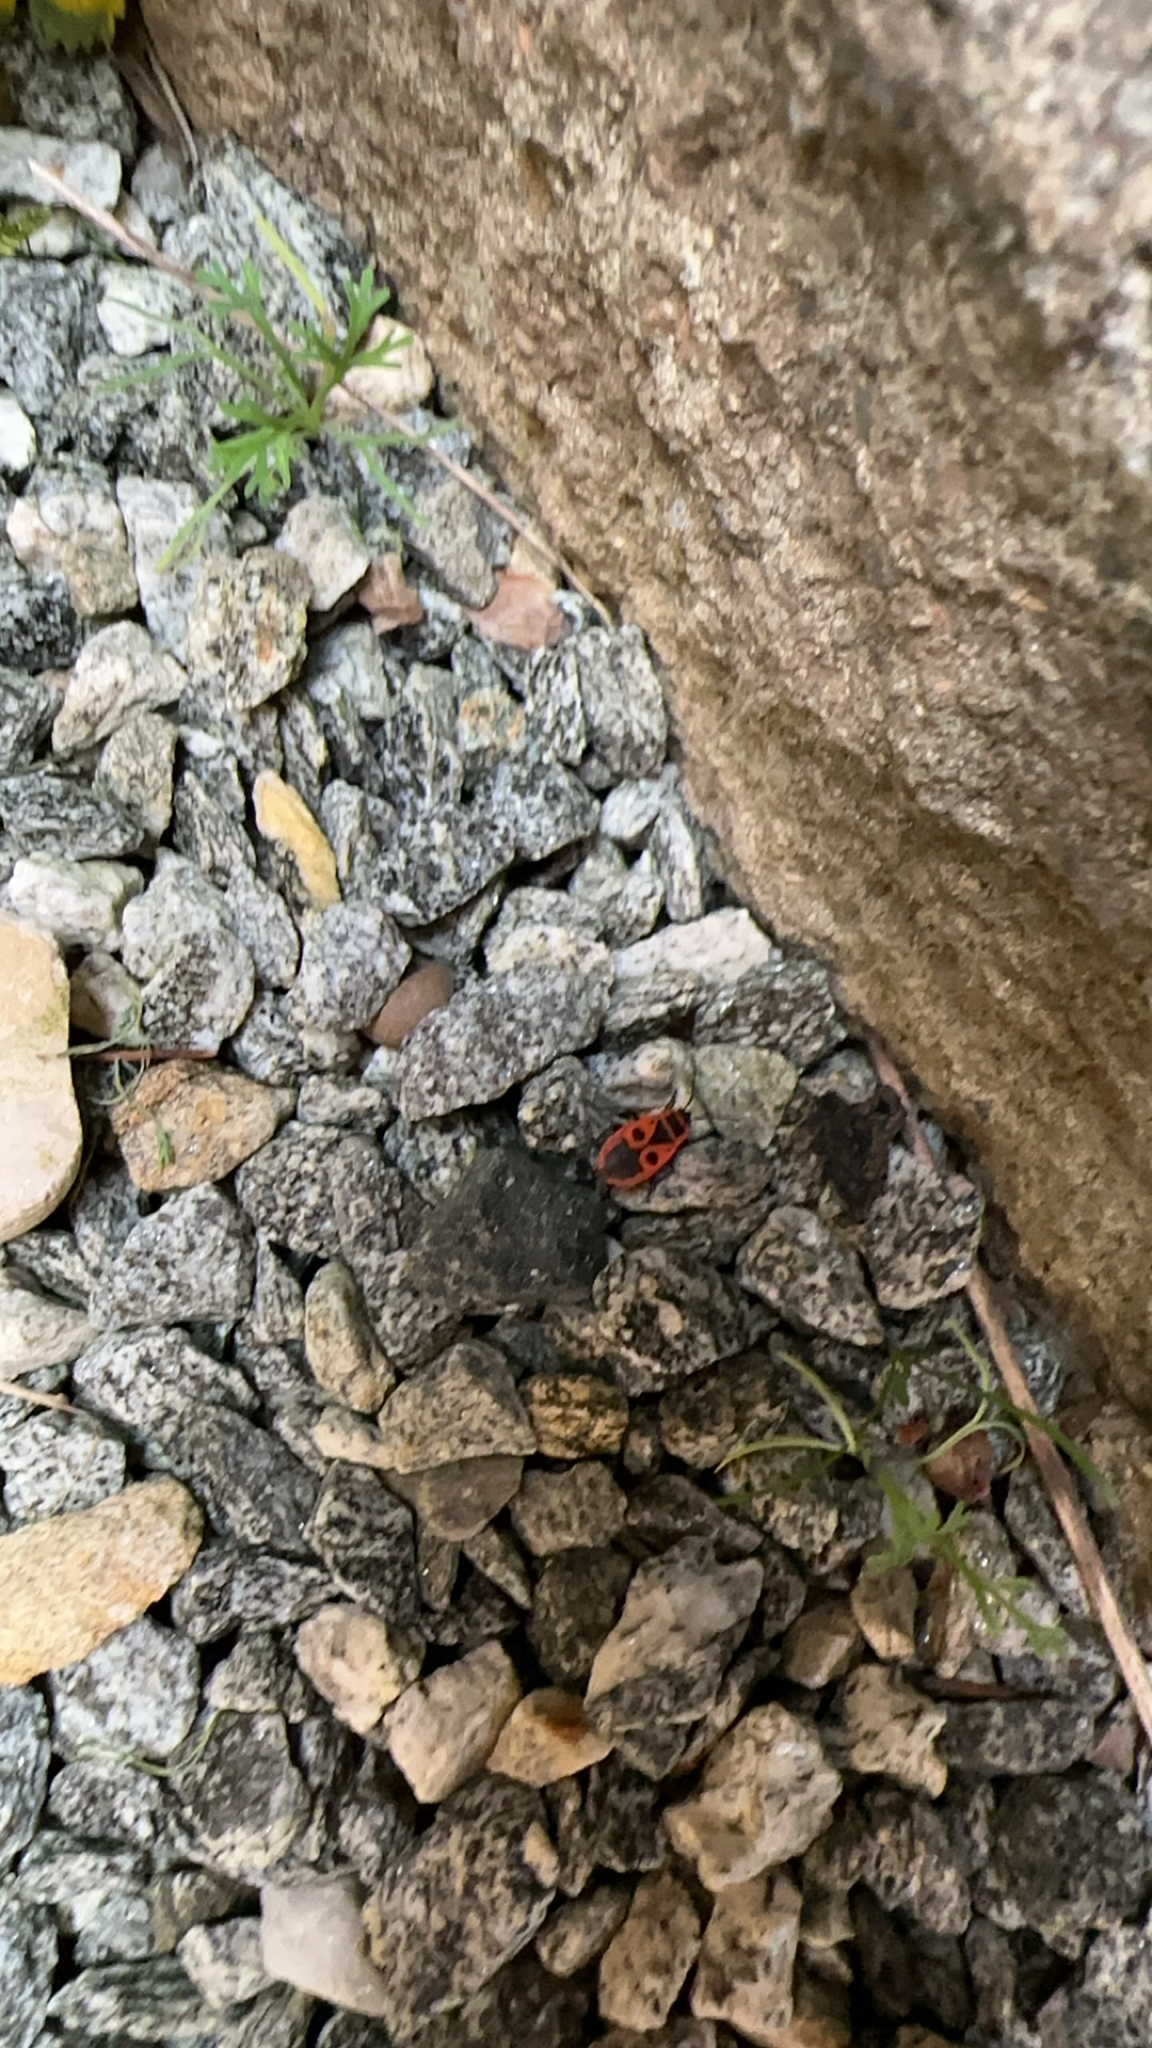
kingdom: Animalia
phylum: Arthropoda
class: Insecta
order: Hemiptera
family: Pyrrhocoridae
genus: Pyrrhocoris
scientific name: Pyrrhocoris apterus
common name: Firebug
